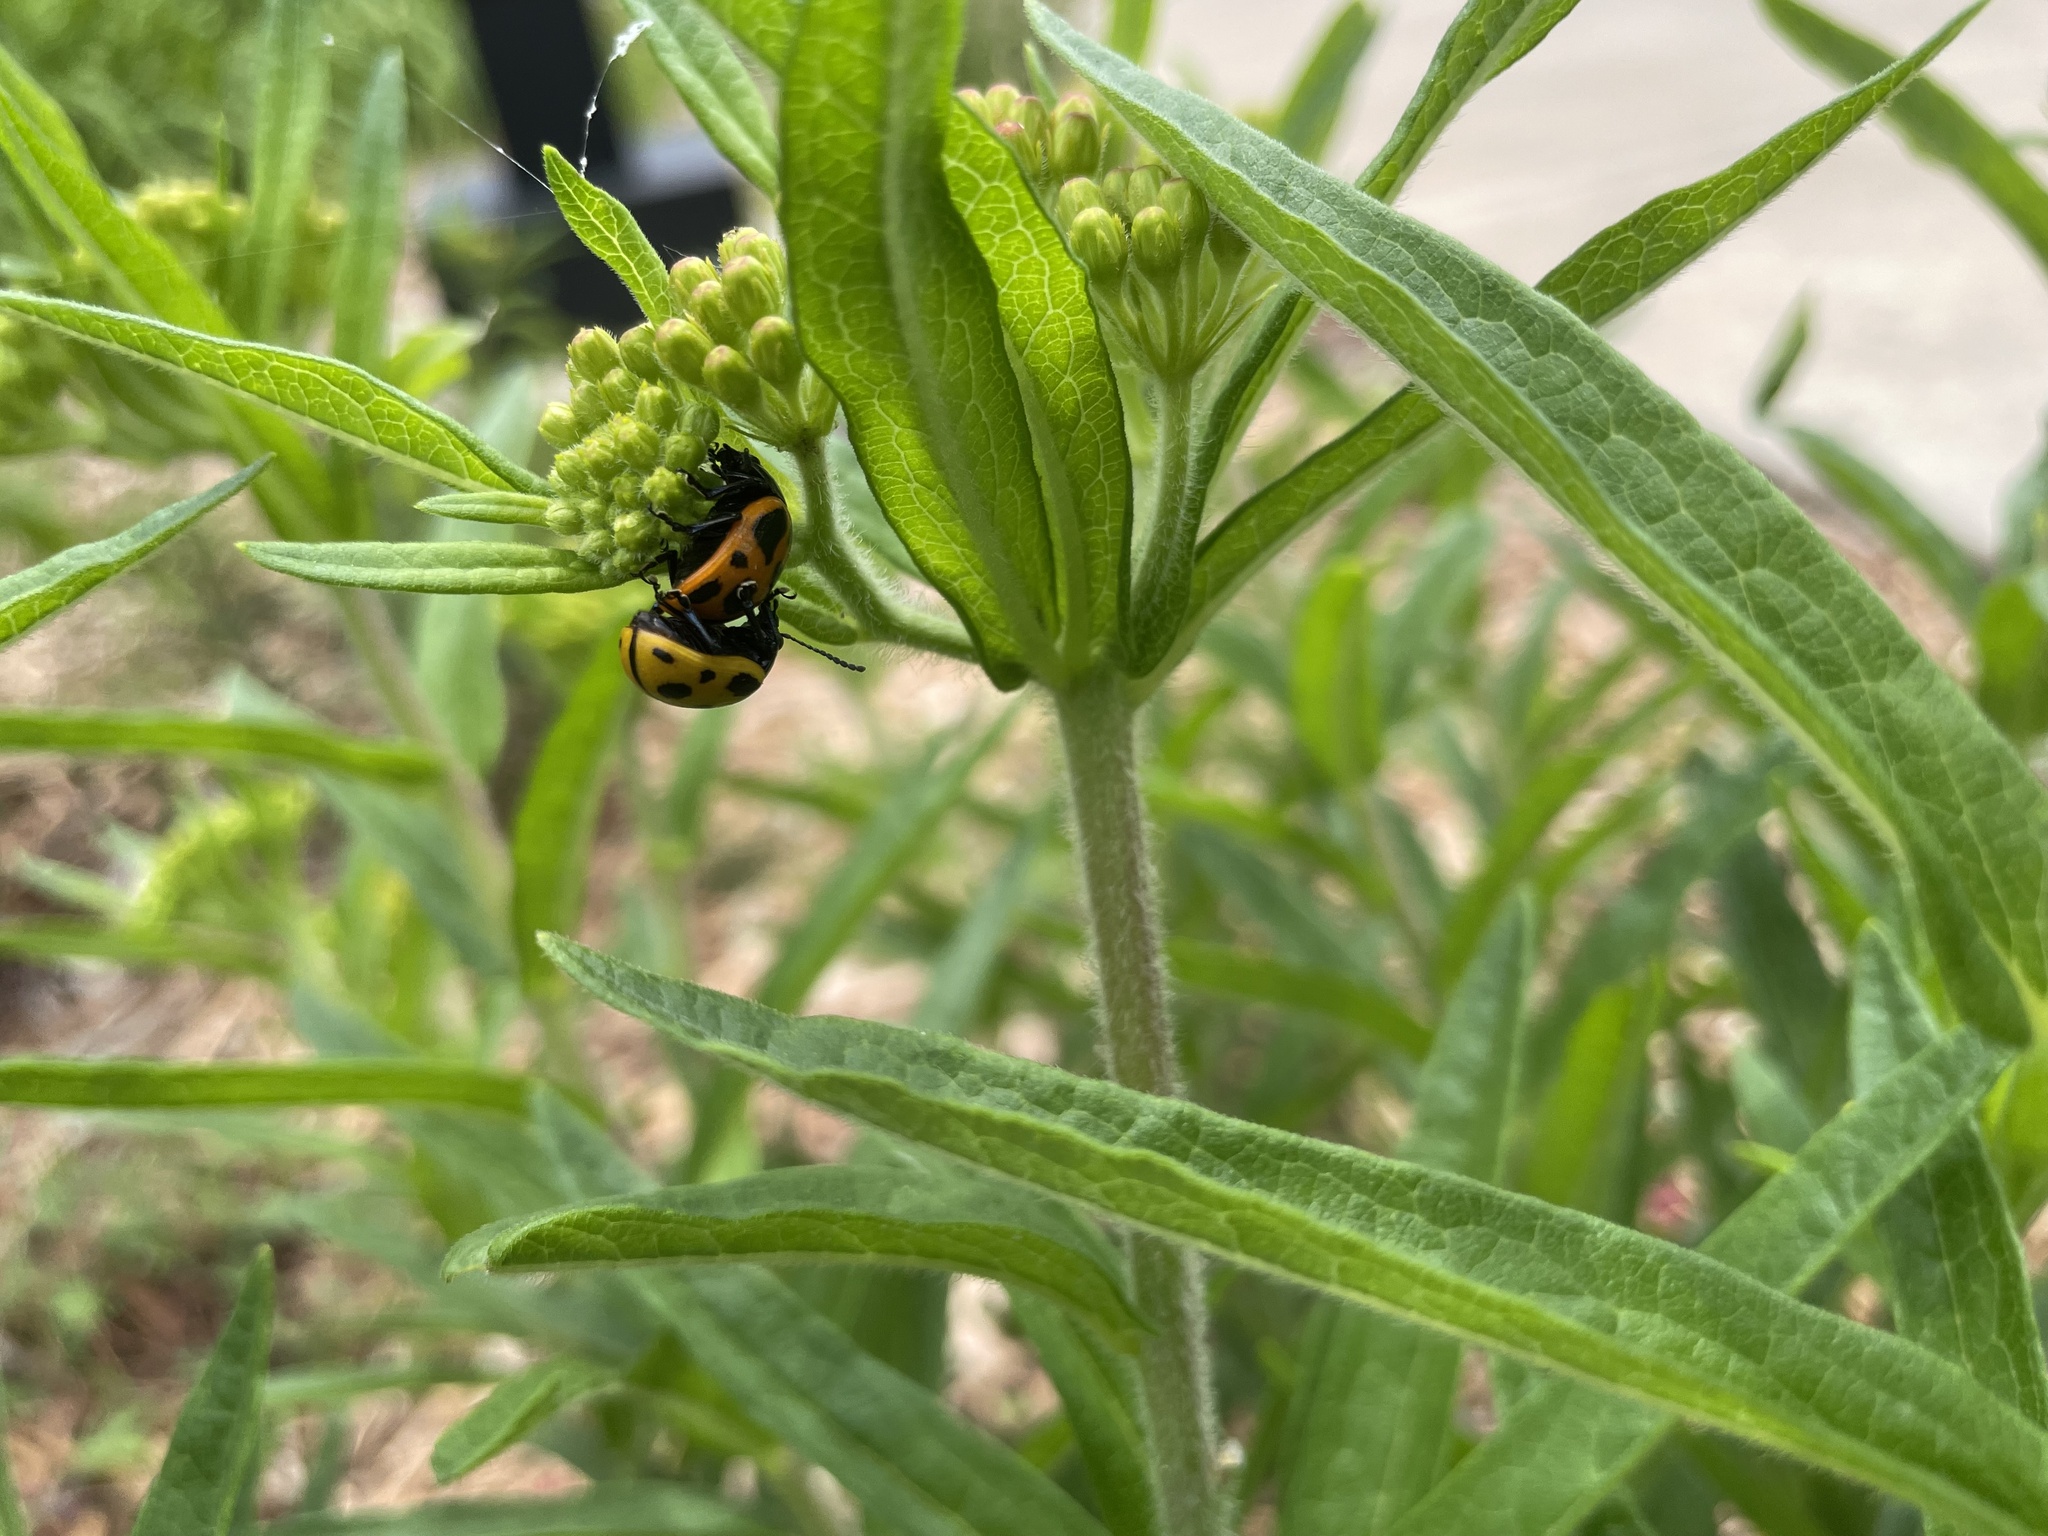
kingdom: Animalia
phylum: Arthropoda
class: Insecta
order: Coleoptera
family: Chrysomelidae
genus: Labidomera
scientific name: Labidomera clivicollis
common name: Swamp milkweed leaf beetle
